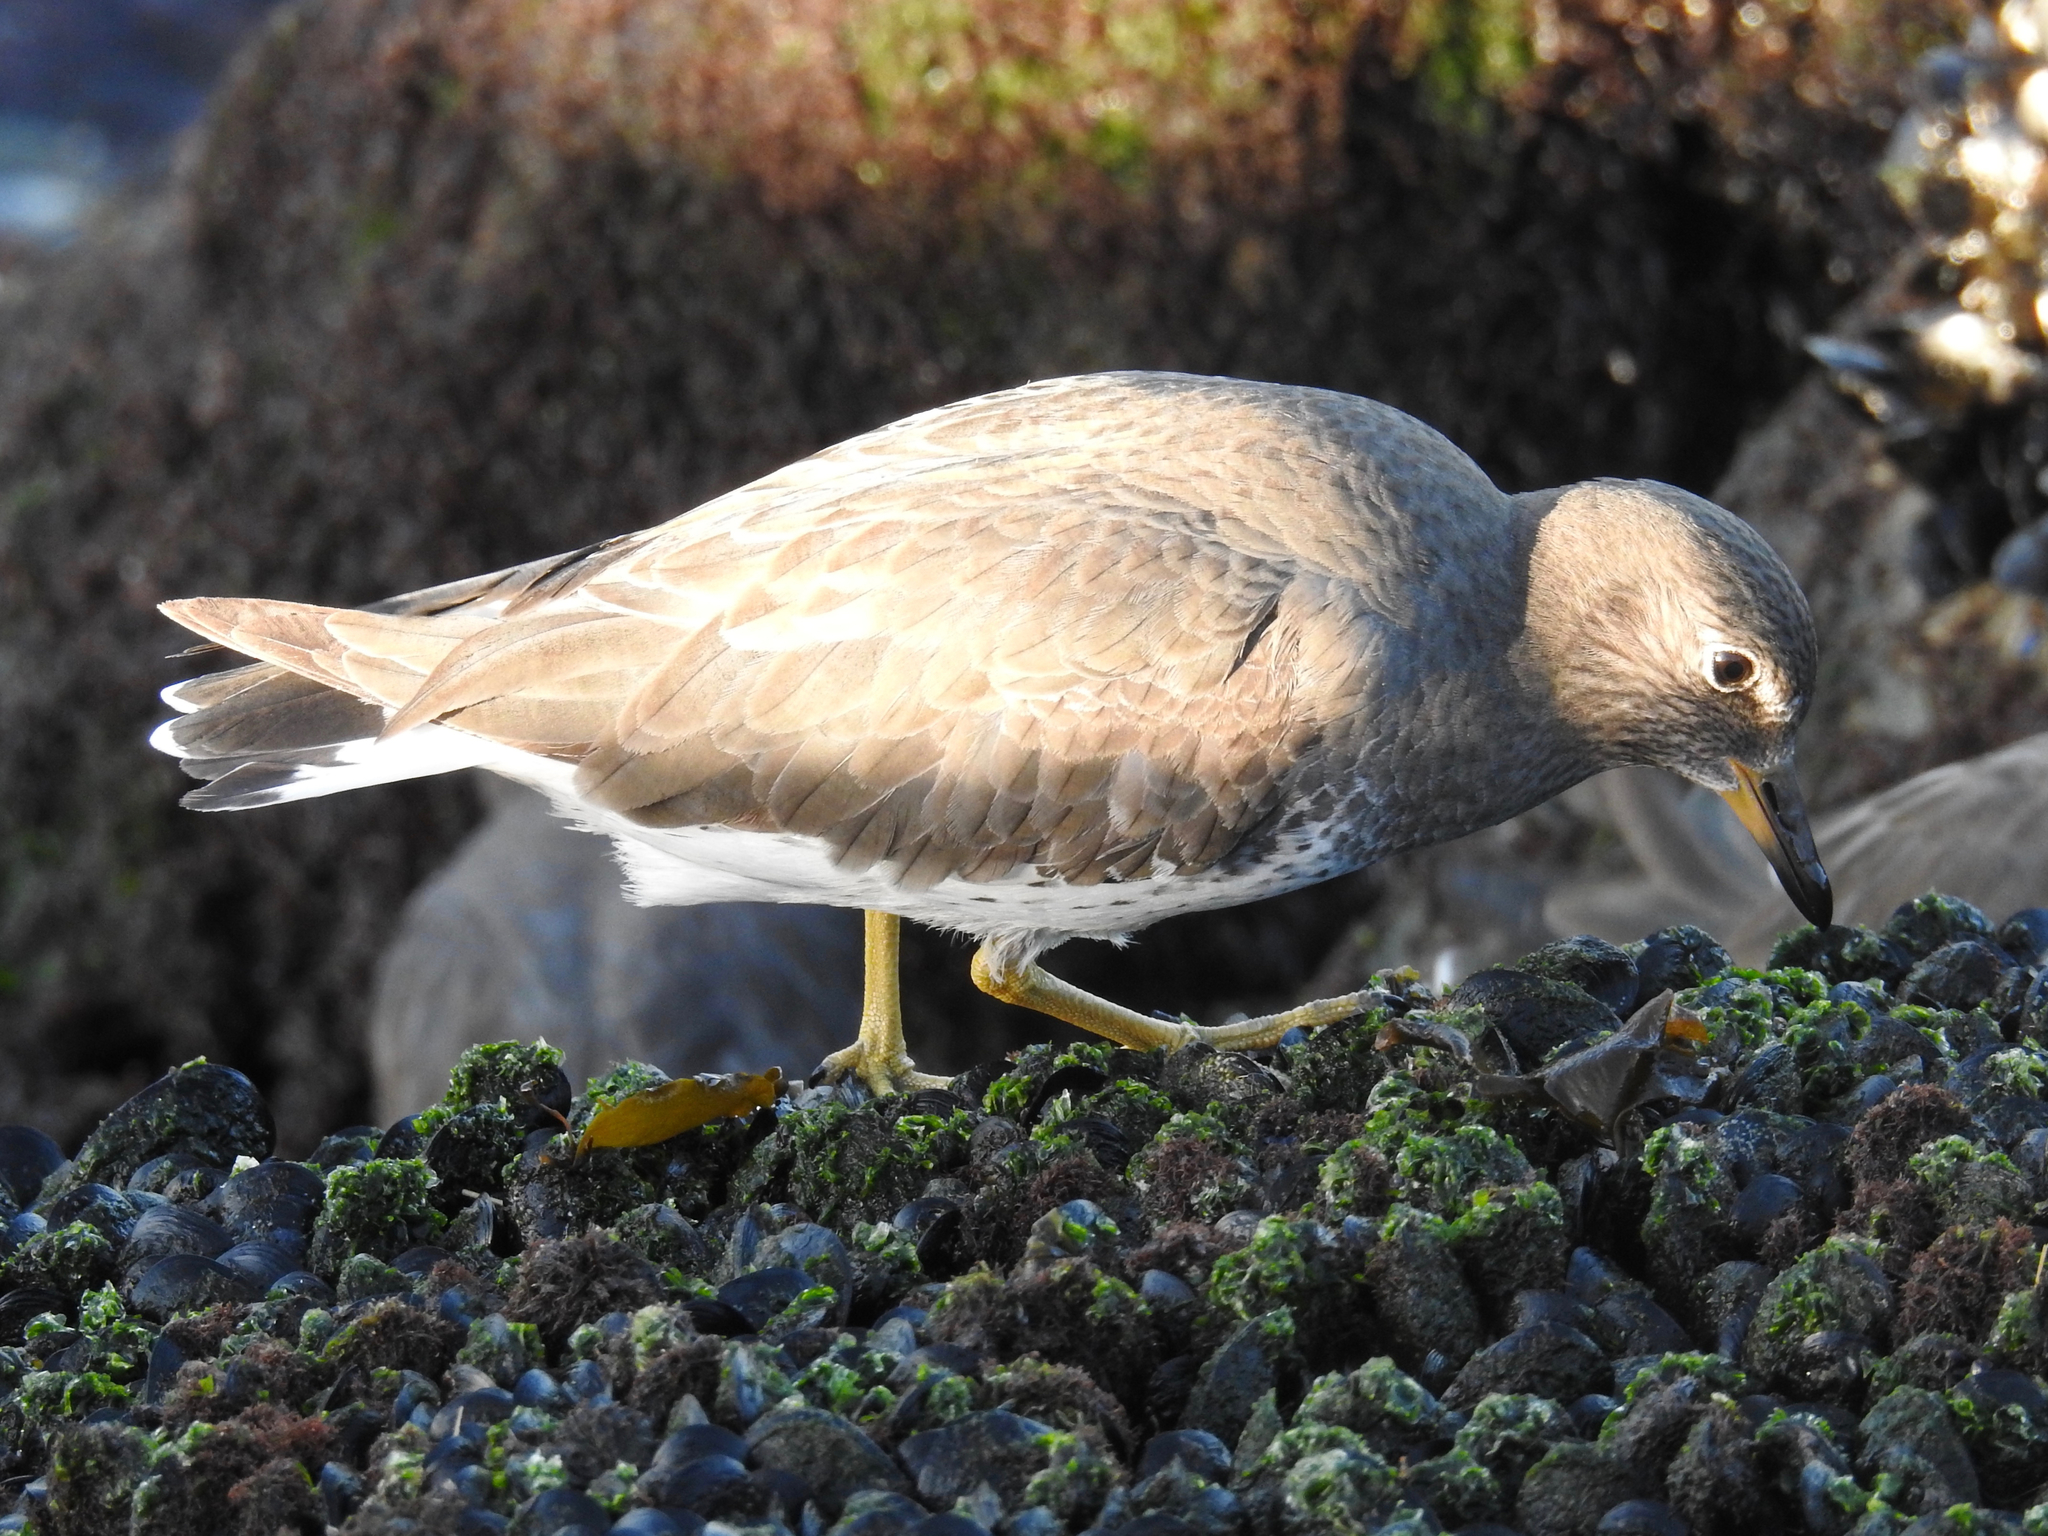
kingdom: Animalia
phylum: Chordata
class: Aves
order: Charadriiformes
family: Scolopacidae
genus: Calidris
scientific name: Calidris virgata
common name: Surfbird
